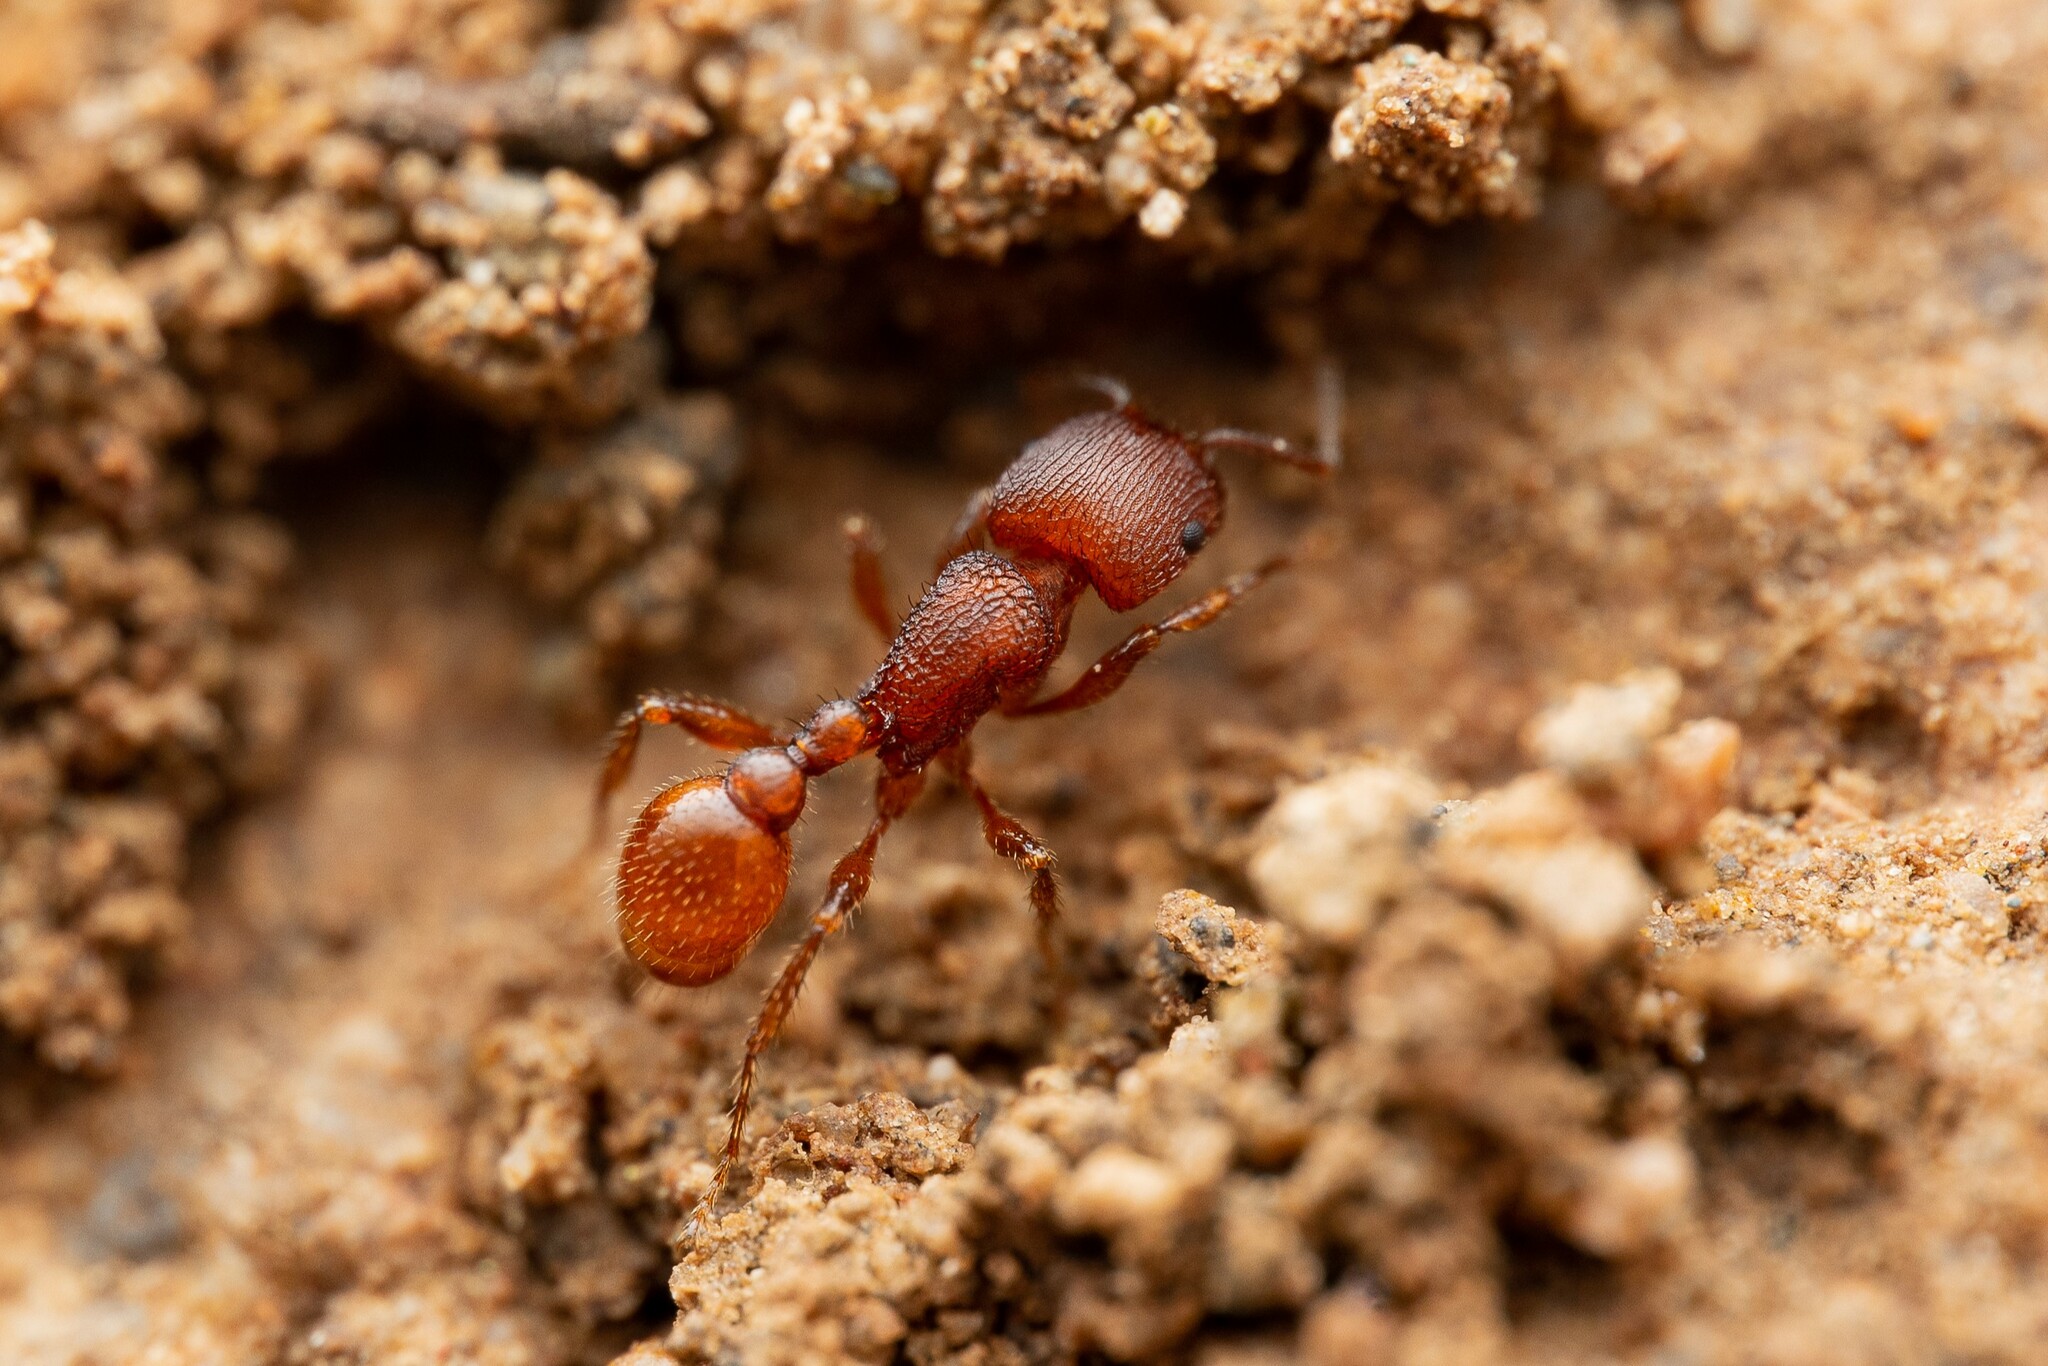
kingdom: Animalia
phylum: Arthropoda
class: Insecta
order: Hymenoptera
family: Formicidae
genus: Pogonomyrmex
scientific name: Pogonomyrmex pima
